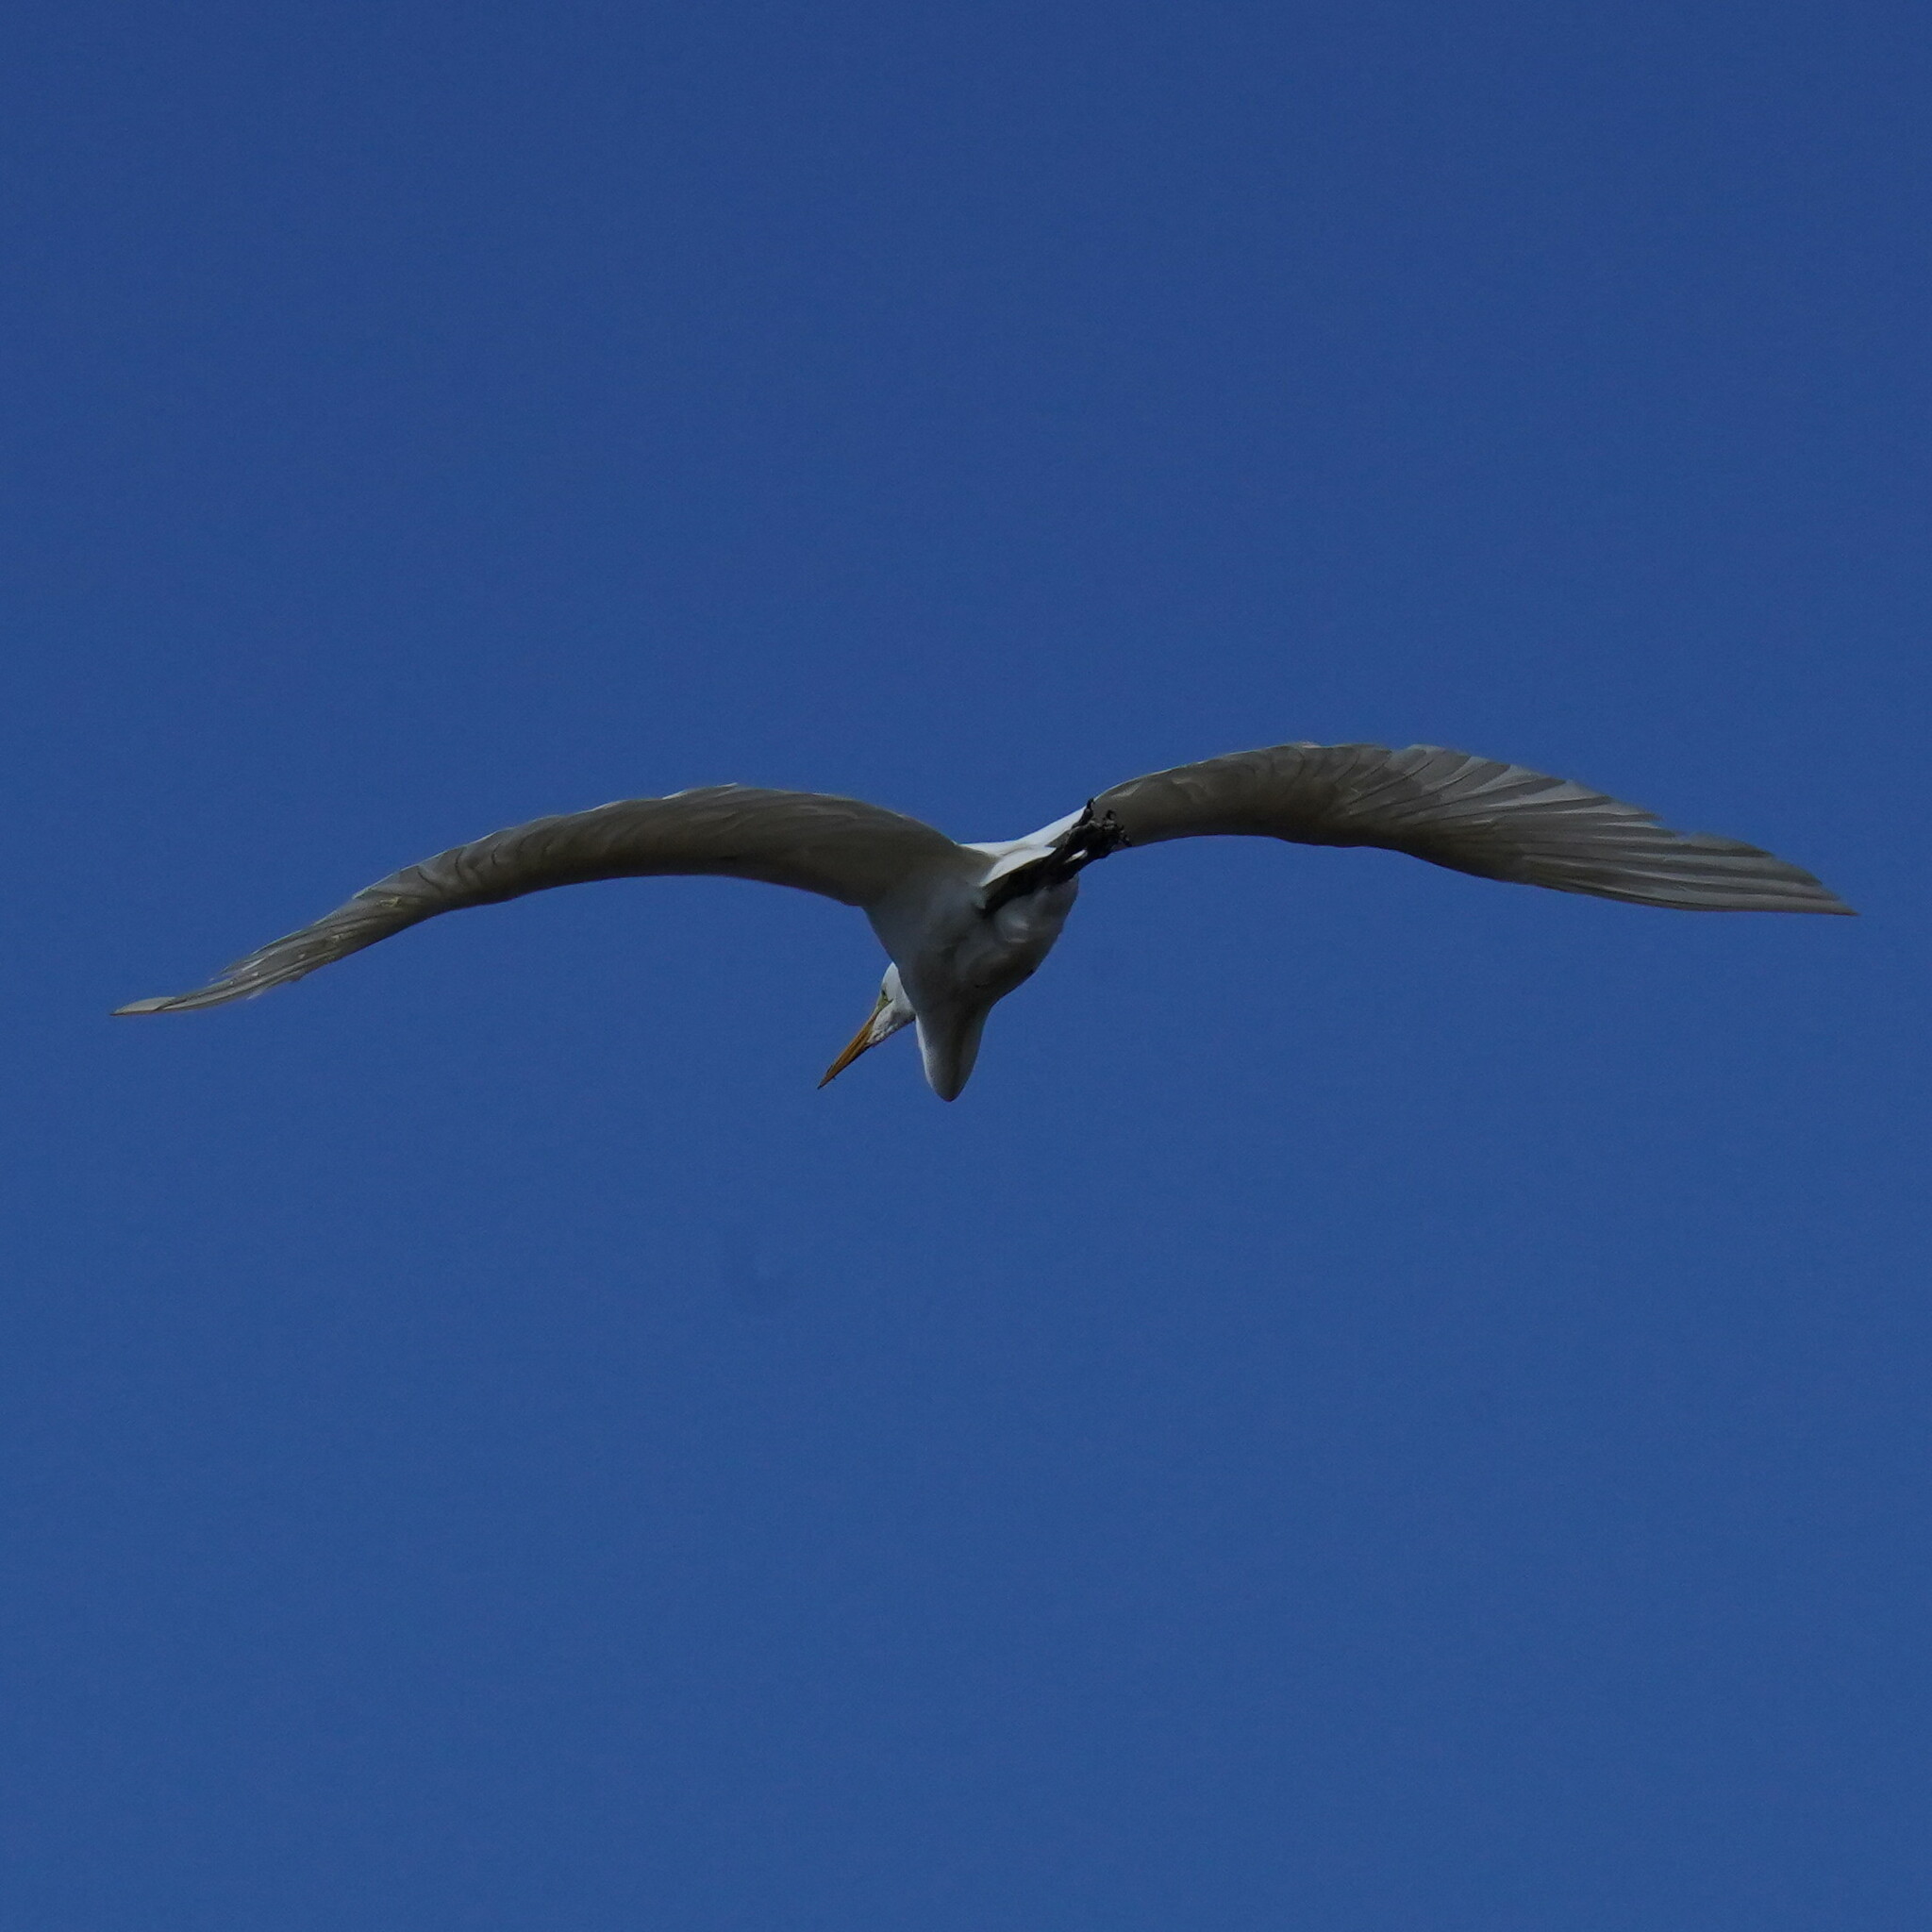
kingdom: Animalia
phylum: Chordata
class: Aves
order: Pelecaniformes
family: Ardeidae
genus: Ardea
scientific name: Ardea alba
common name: Great egret
